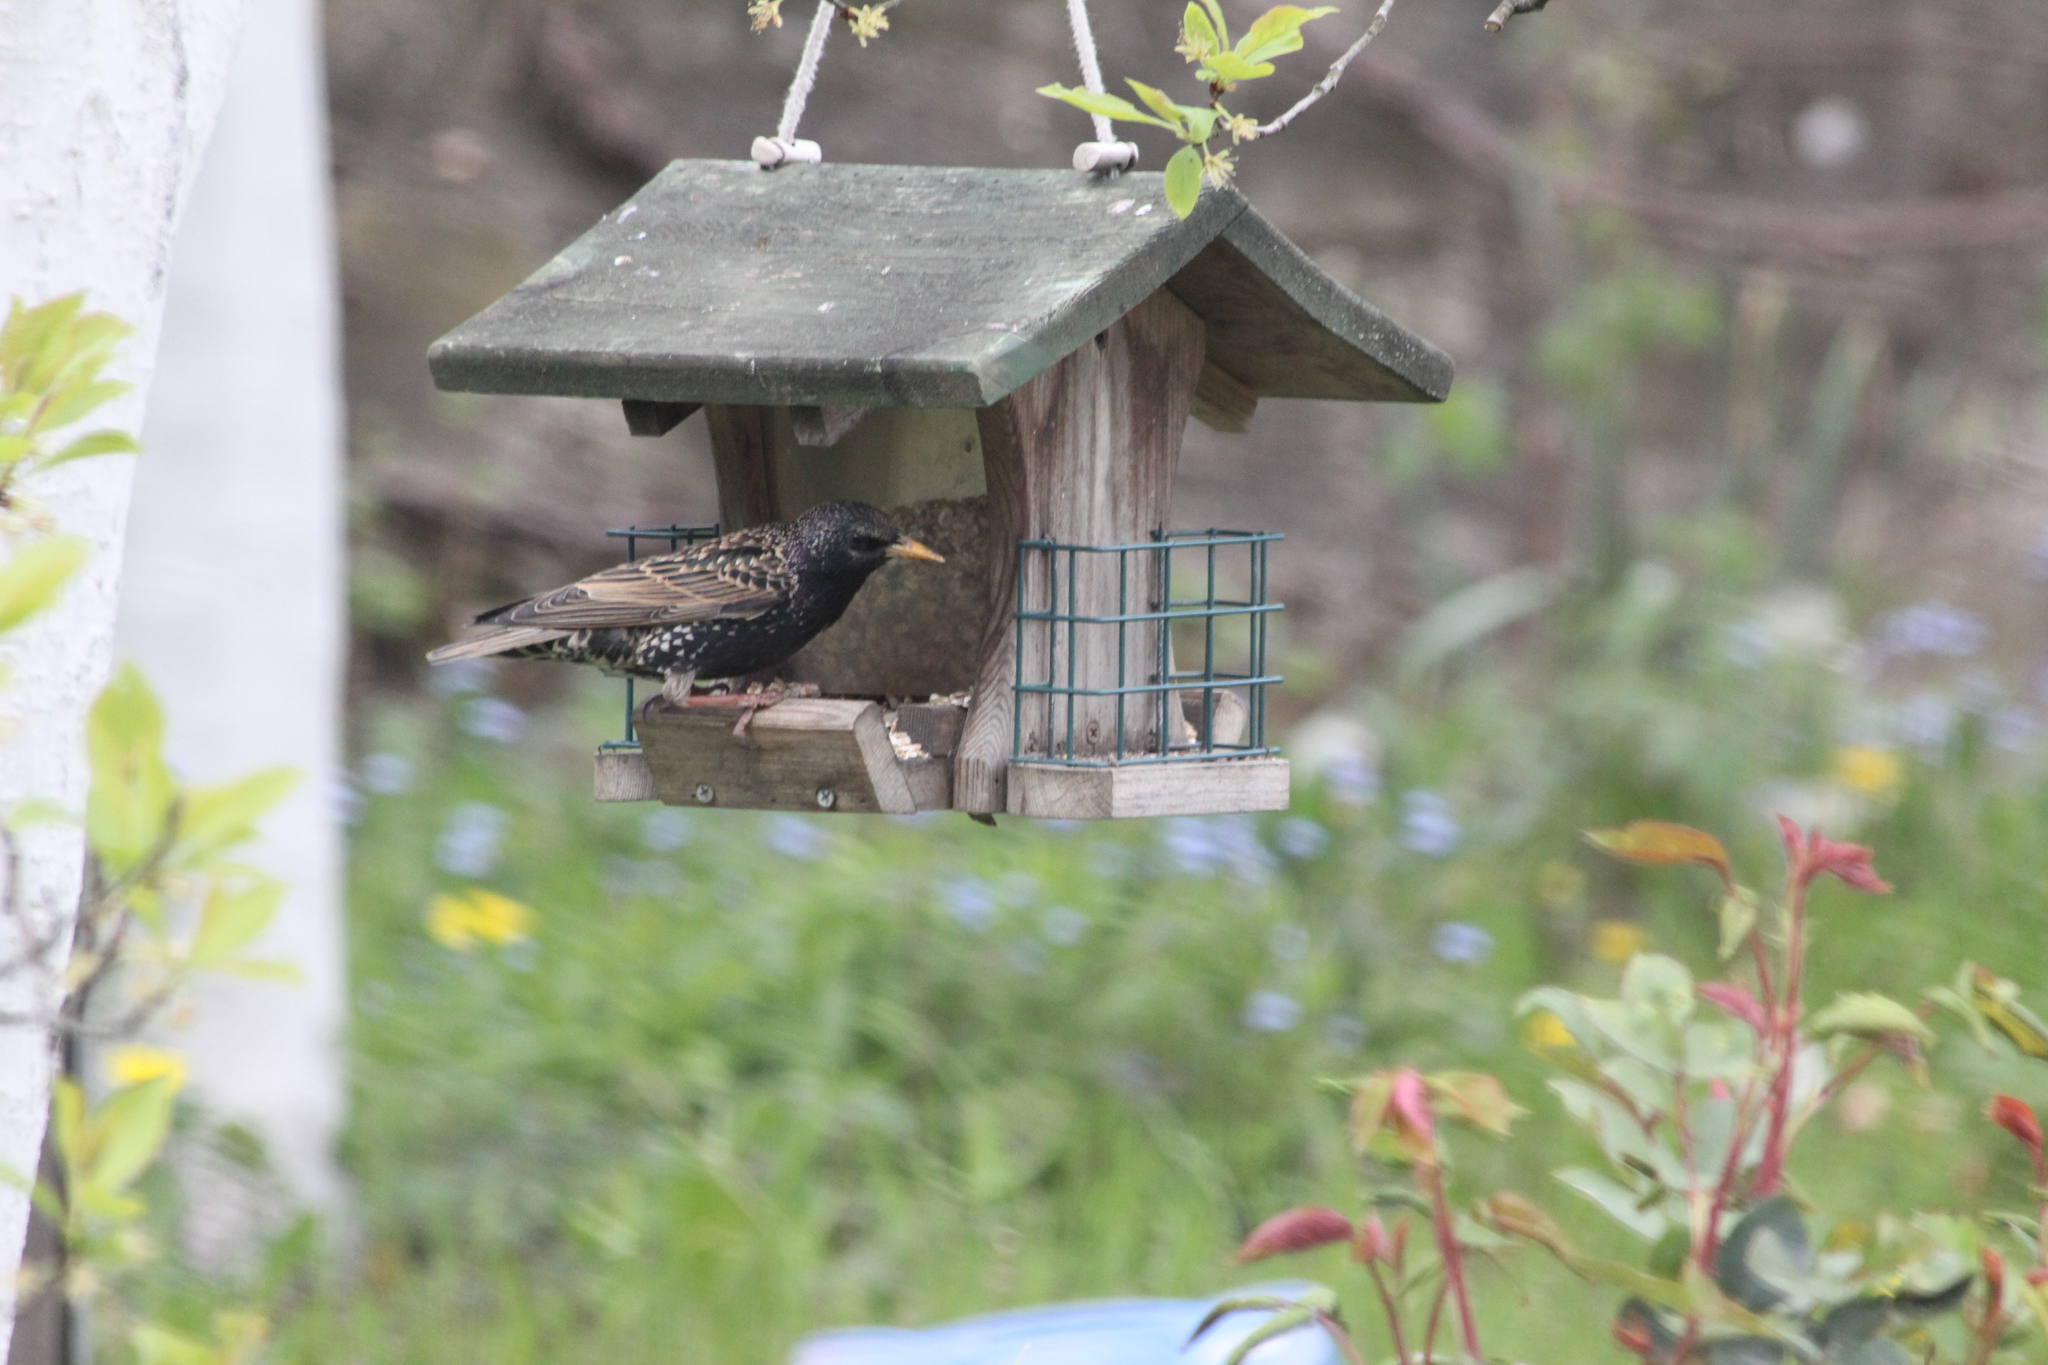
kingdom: Animalia
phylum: Chordata
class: Aves
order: Passeriformes
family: Sturnidae
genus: Sturnus
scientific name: Sturnus vulgaris
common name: Common starling
